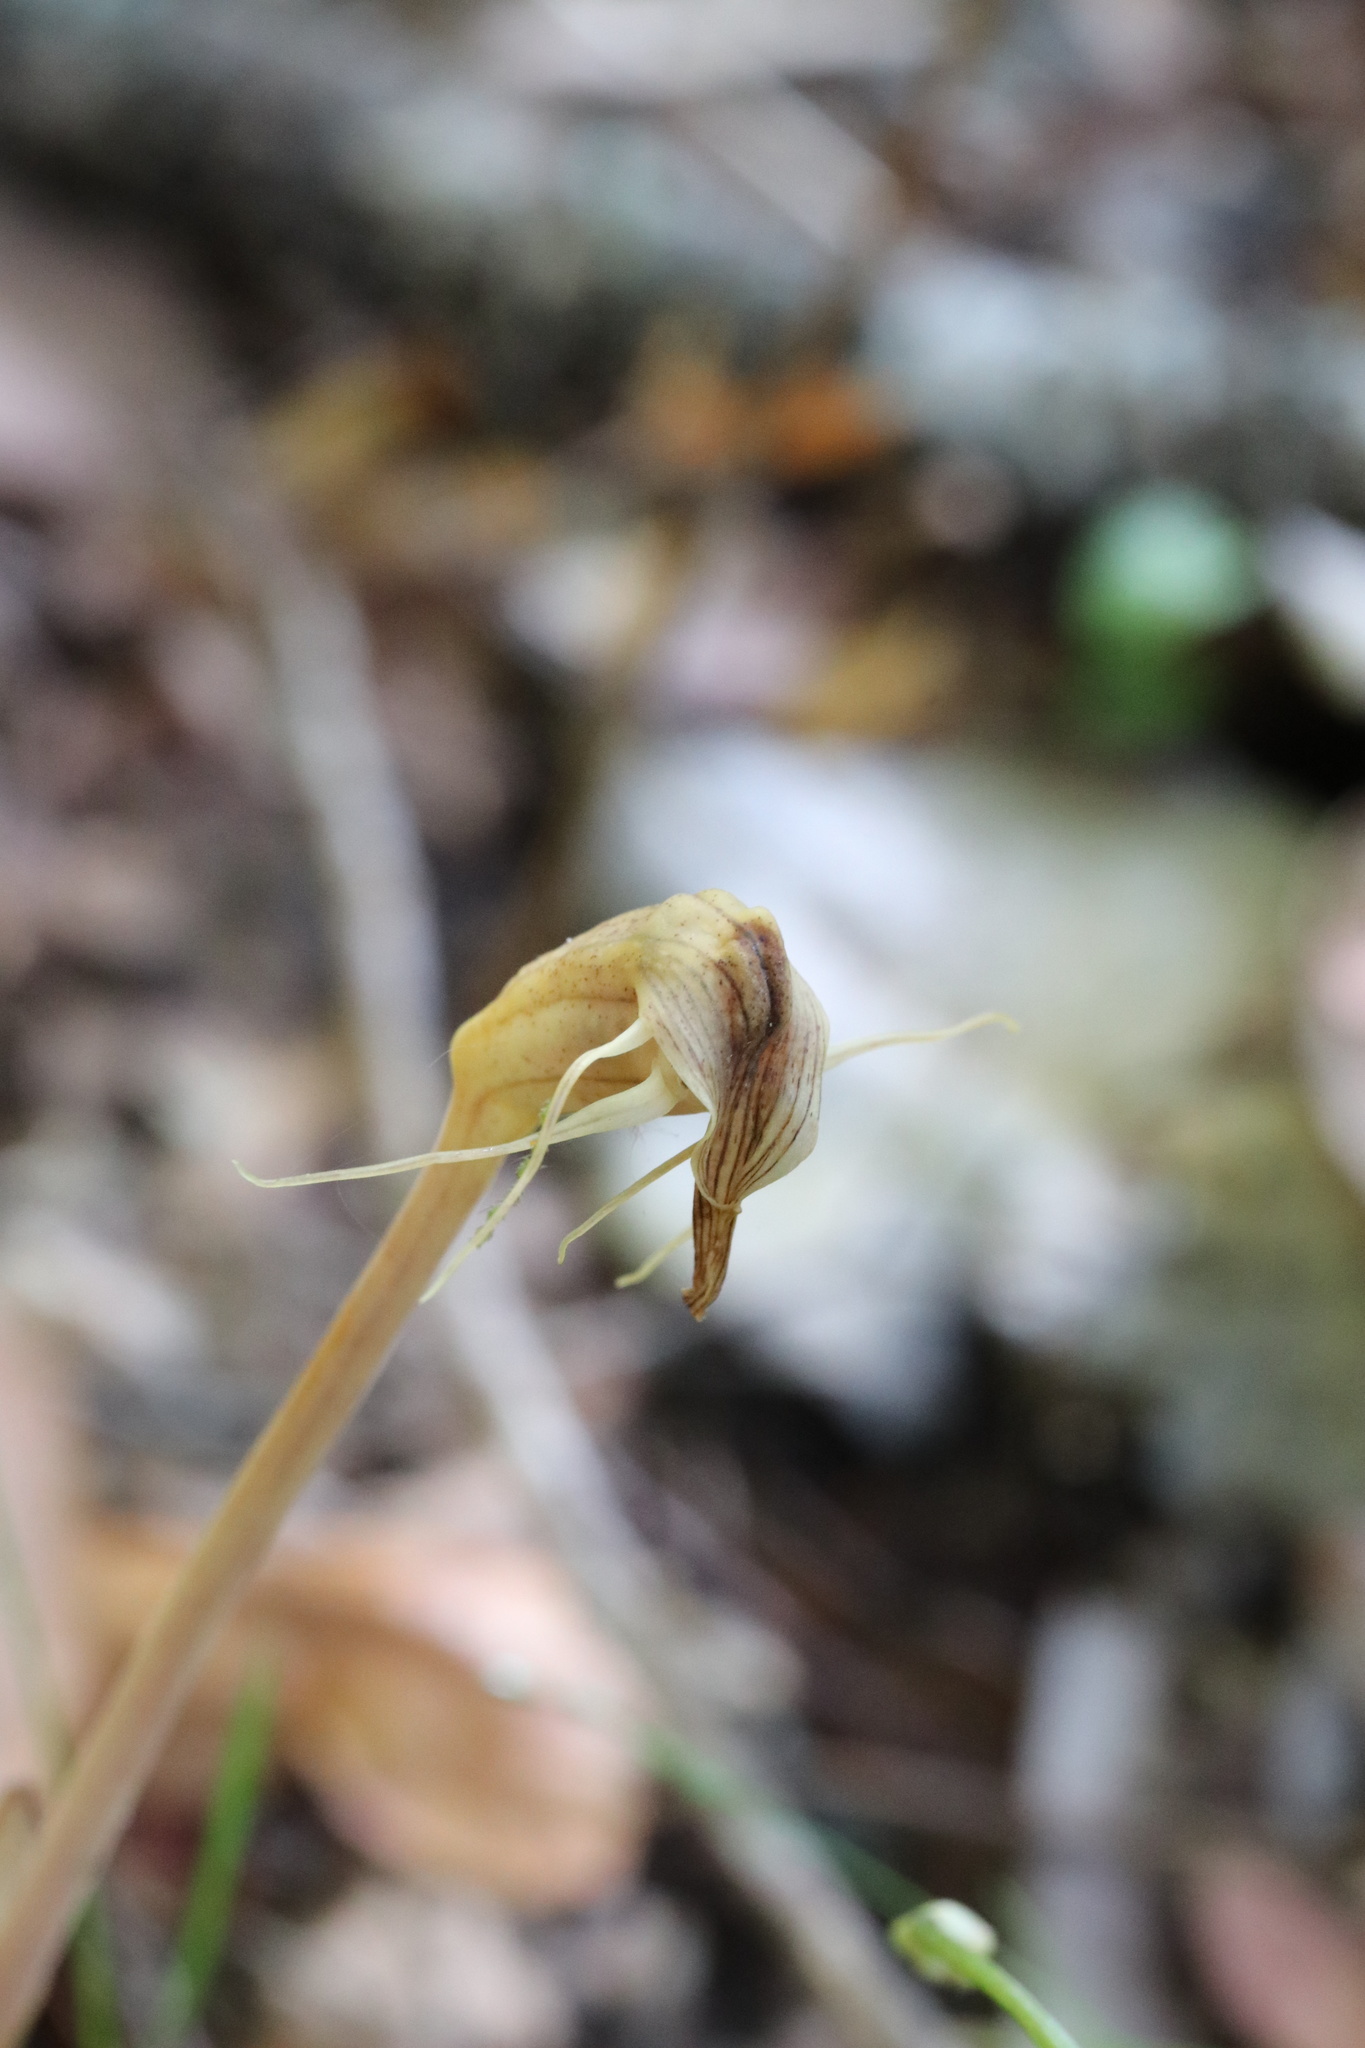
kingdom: Plantae
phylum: Tracheophyta
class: Liliopsida
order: Liliales
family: Corsiaceae
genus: Arachnitis
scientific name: Arachnitis uniflora
